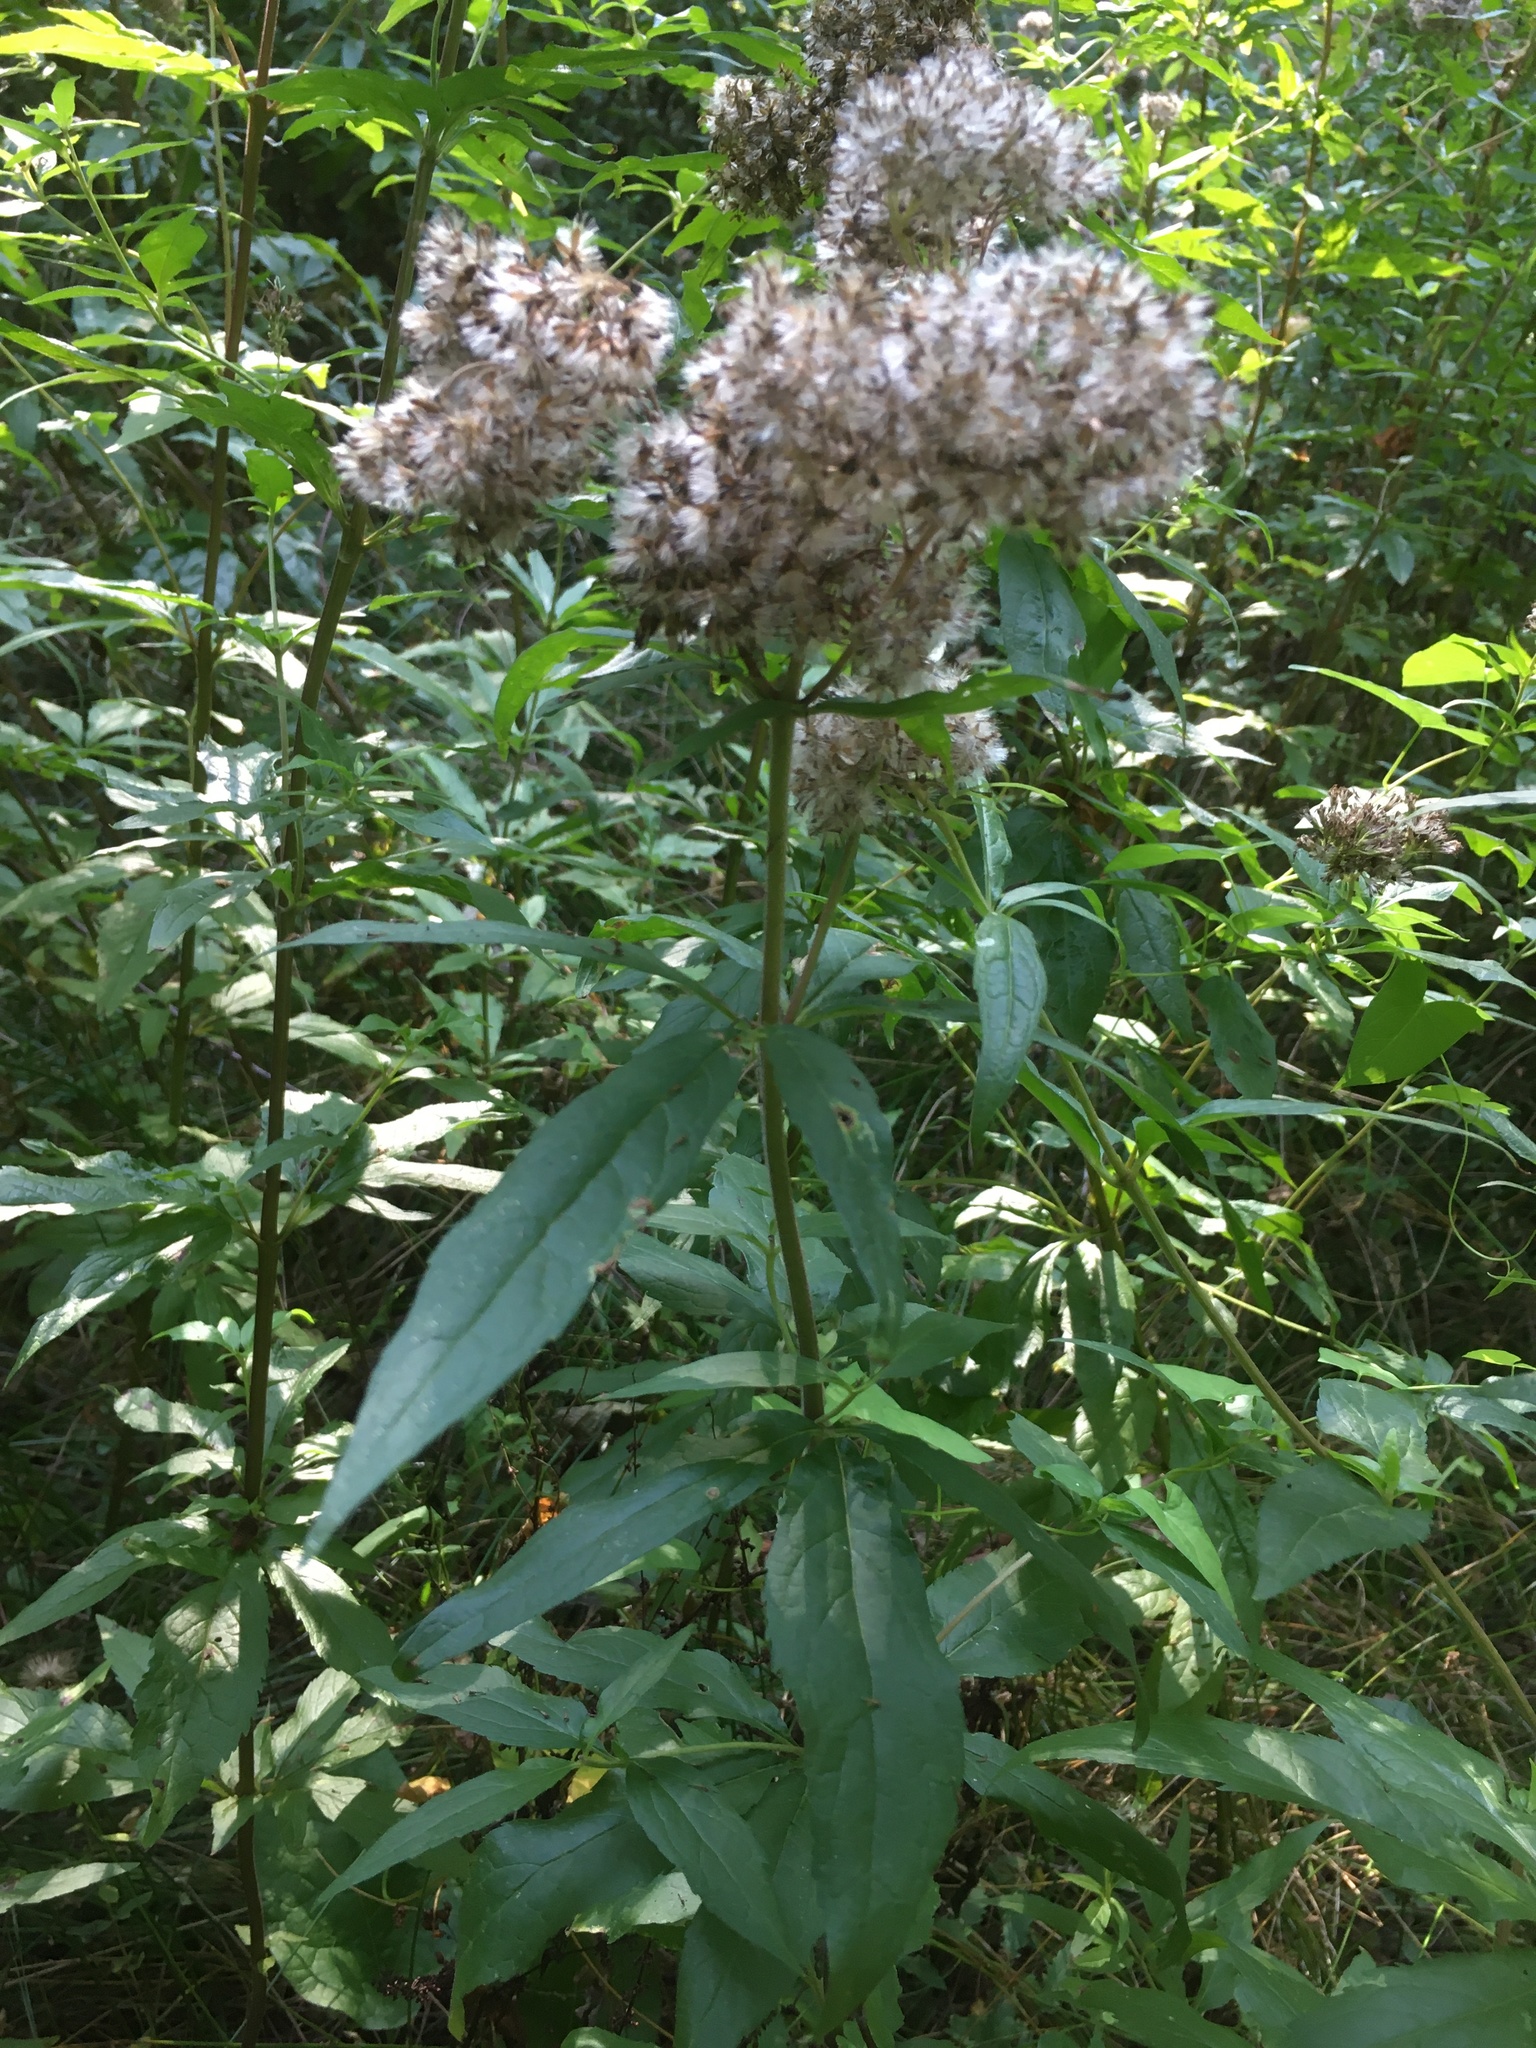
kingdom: Plantae
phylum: Tracheophyta
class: Magnoliopsida
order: Asterales
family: Asteraceae
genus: Eupatorium
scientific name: Eupatorium cannabinum
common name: Hemp-agrimony
